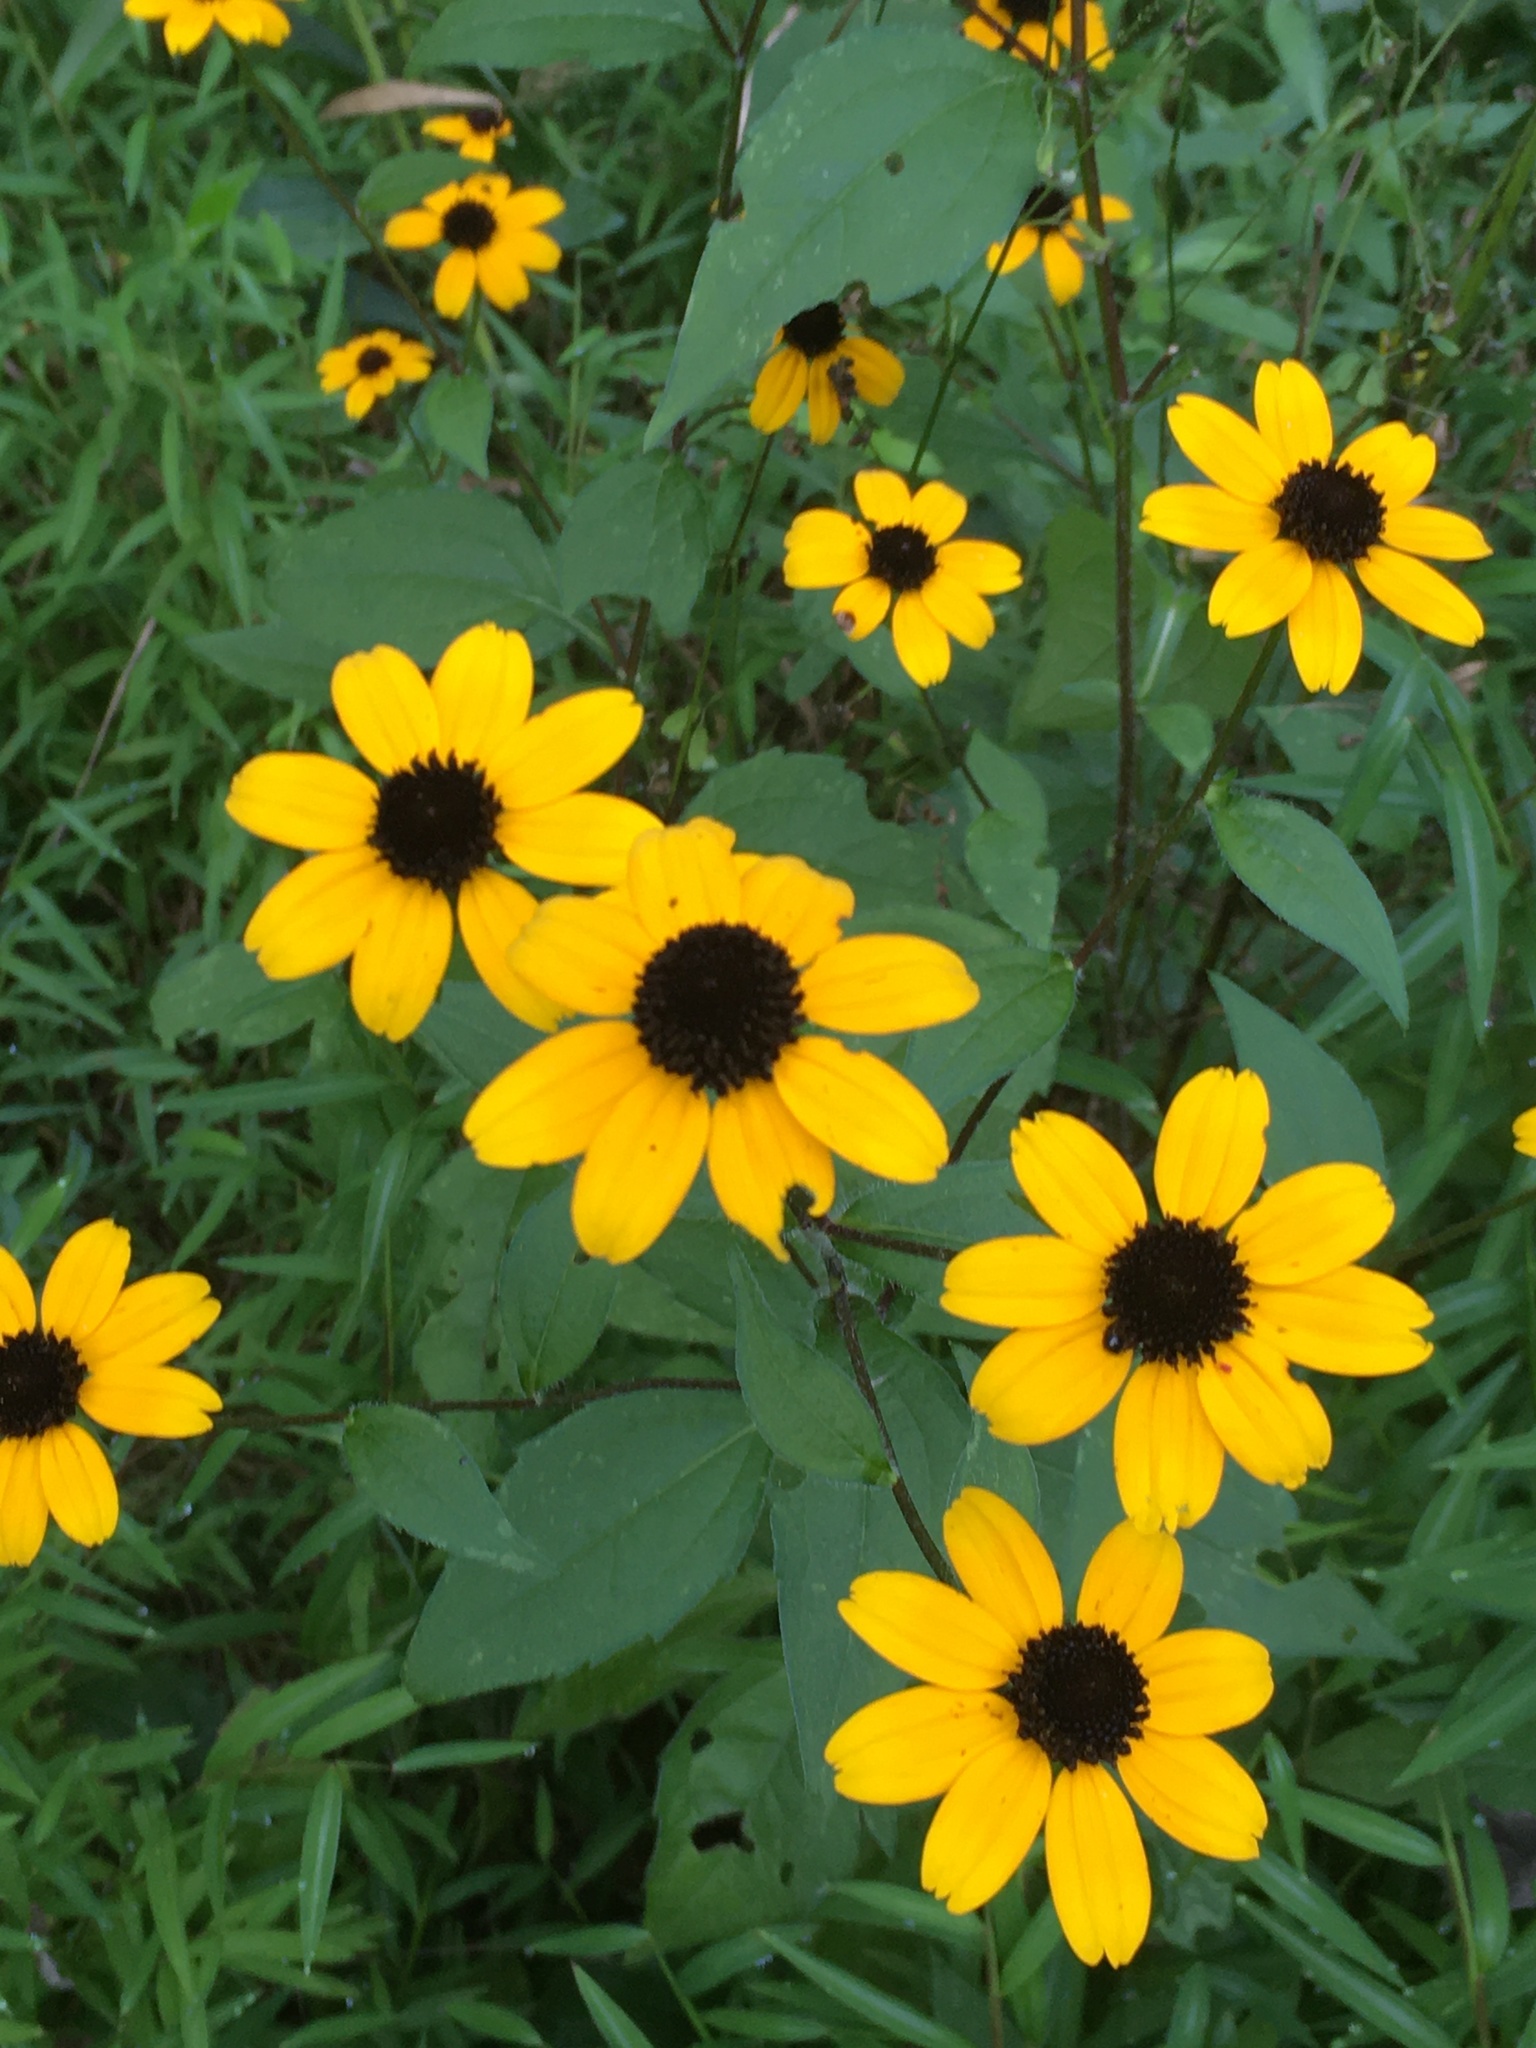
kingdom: Plantae
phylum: Tracheophyta
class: Magnoliopsida
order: Asterales
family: Asteraceae
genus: Rudbeckia
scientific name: Rudbeckia triloba
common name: Thin-leaved coneflower
